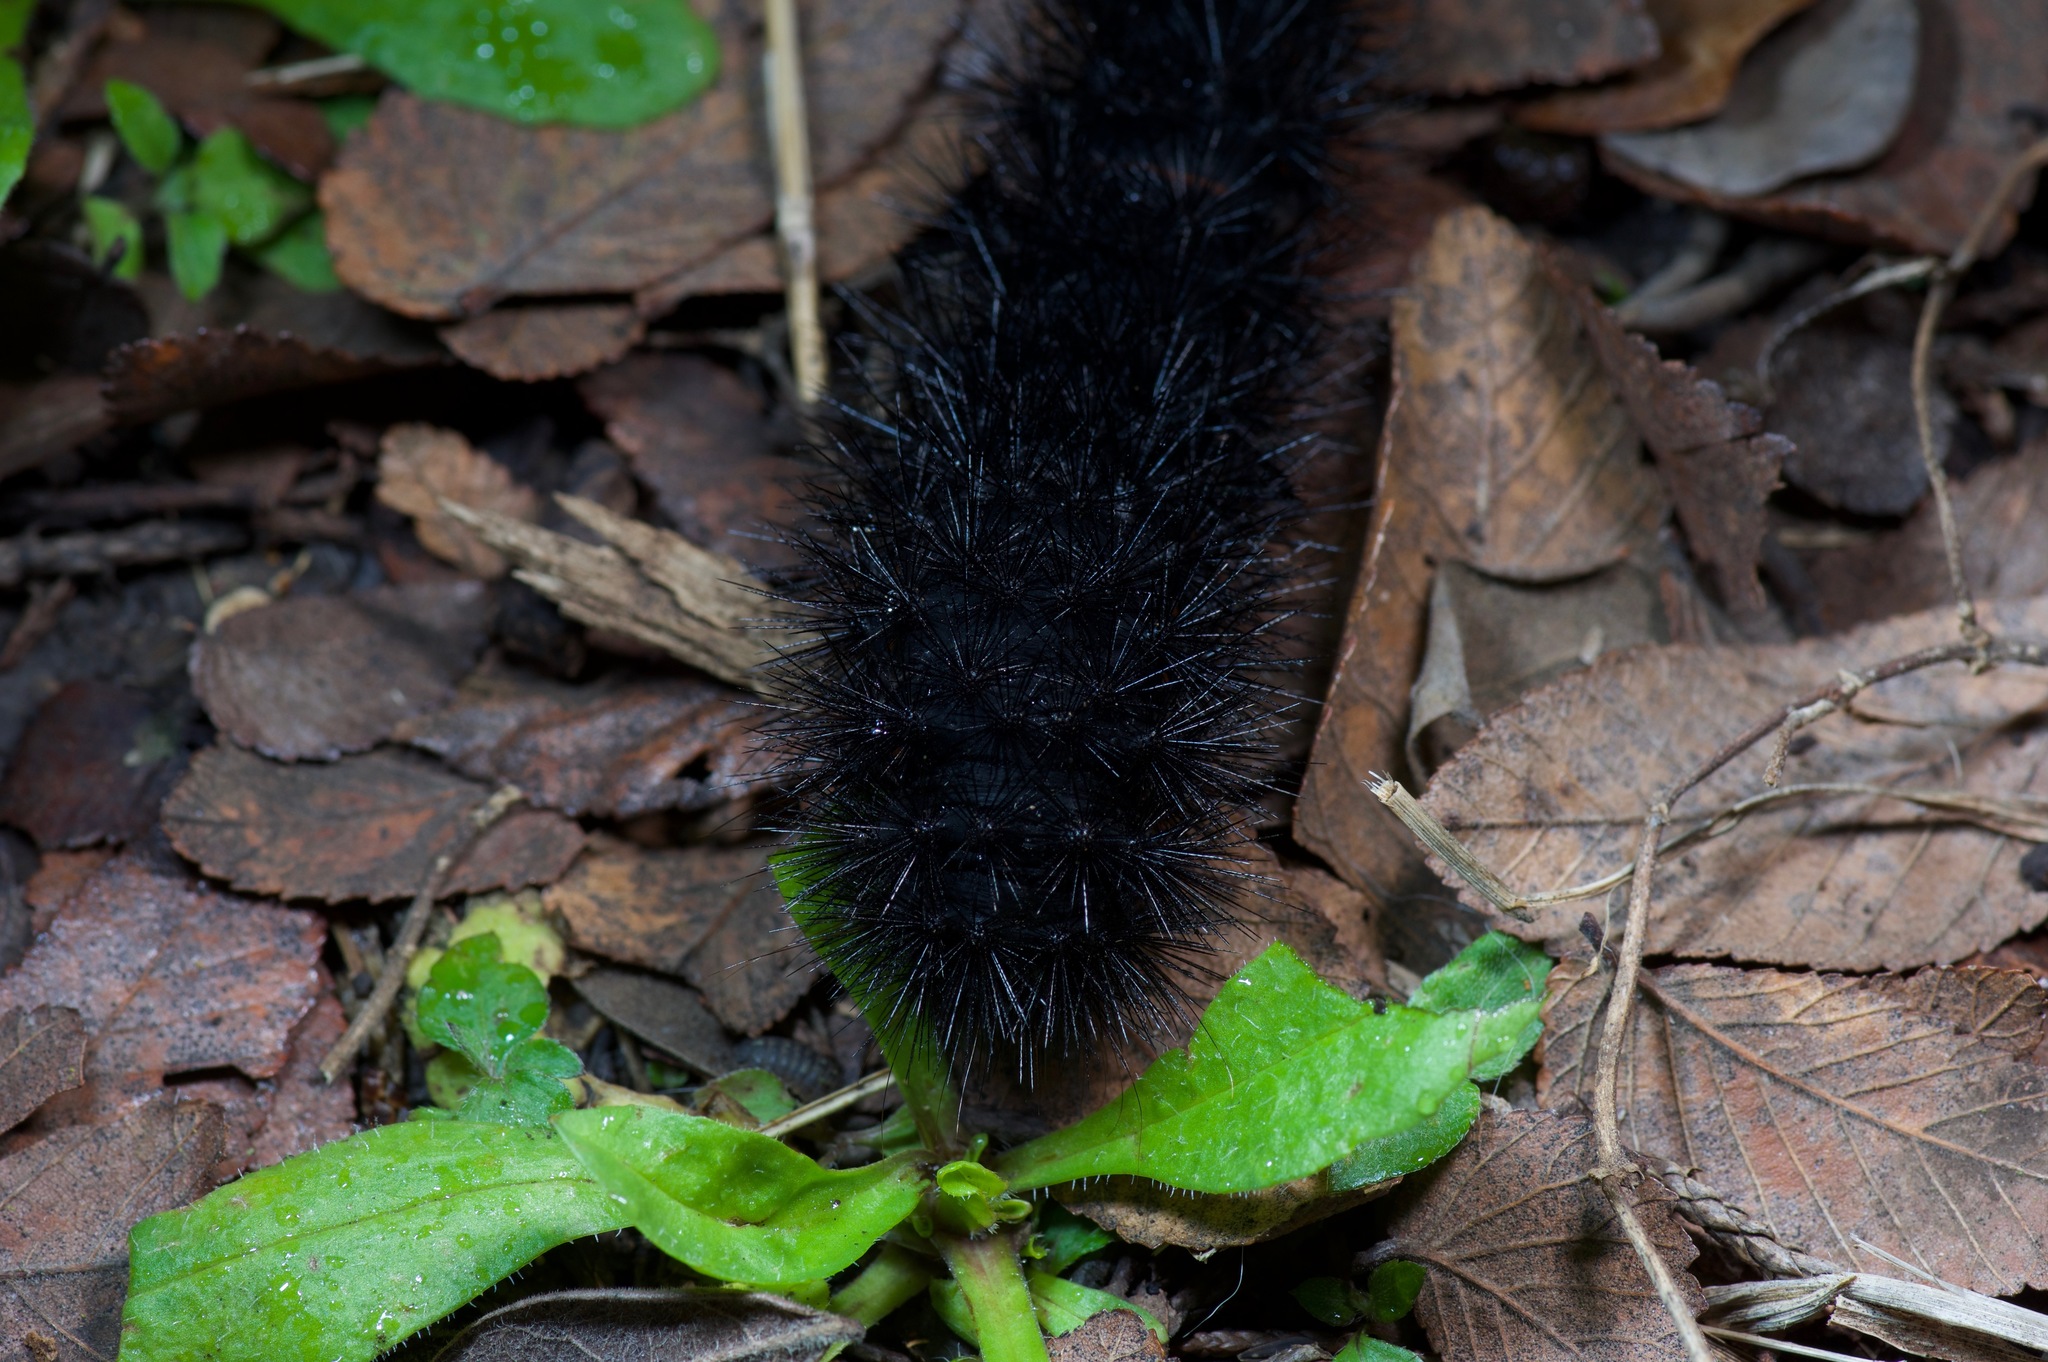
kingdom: Animalia
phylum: Arthropoda
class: Insecta
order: Lepidoptera
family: Erebidae
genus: Hypercompe
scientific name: Hypercompe scribonia
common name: Giant leopard moth
